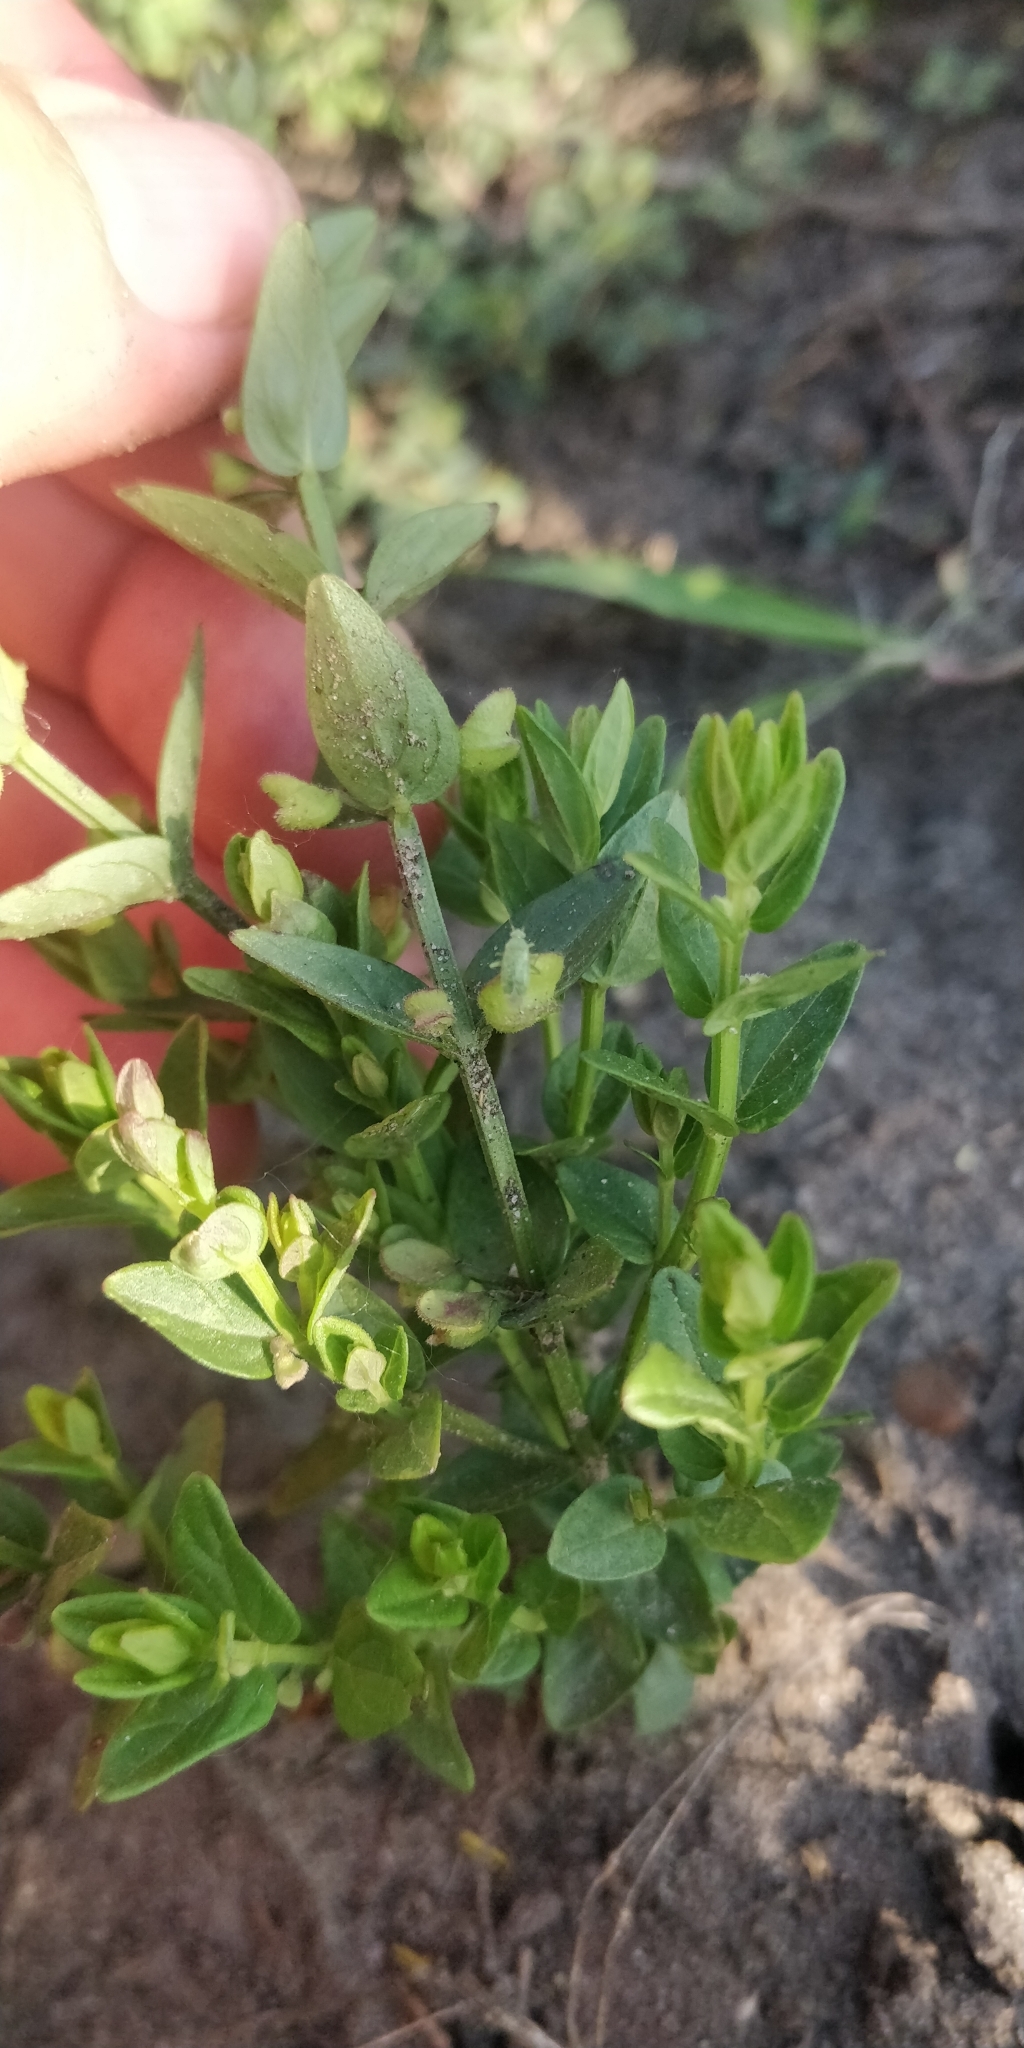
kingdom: Plantae
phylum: Tracheophyta
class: Magnoliopsida
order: Lamiales
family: Lamiaceae
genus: Scutellaria
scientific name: Scutellaria parvula
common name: Little scullcap
